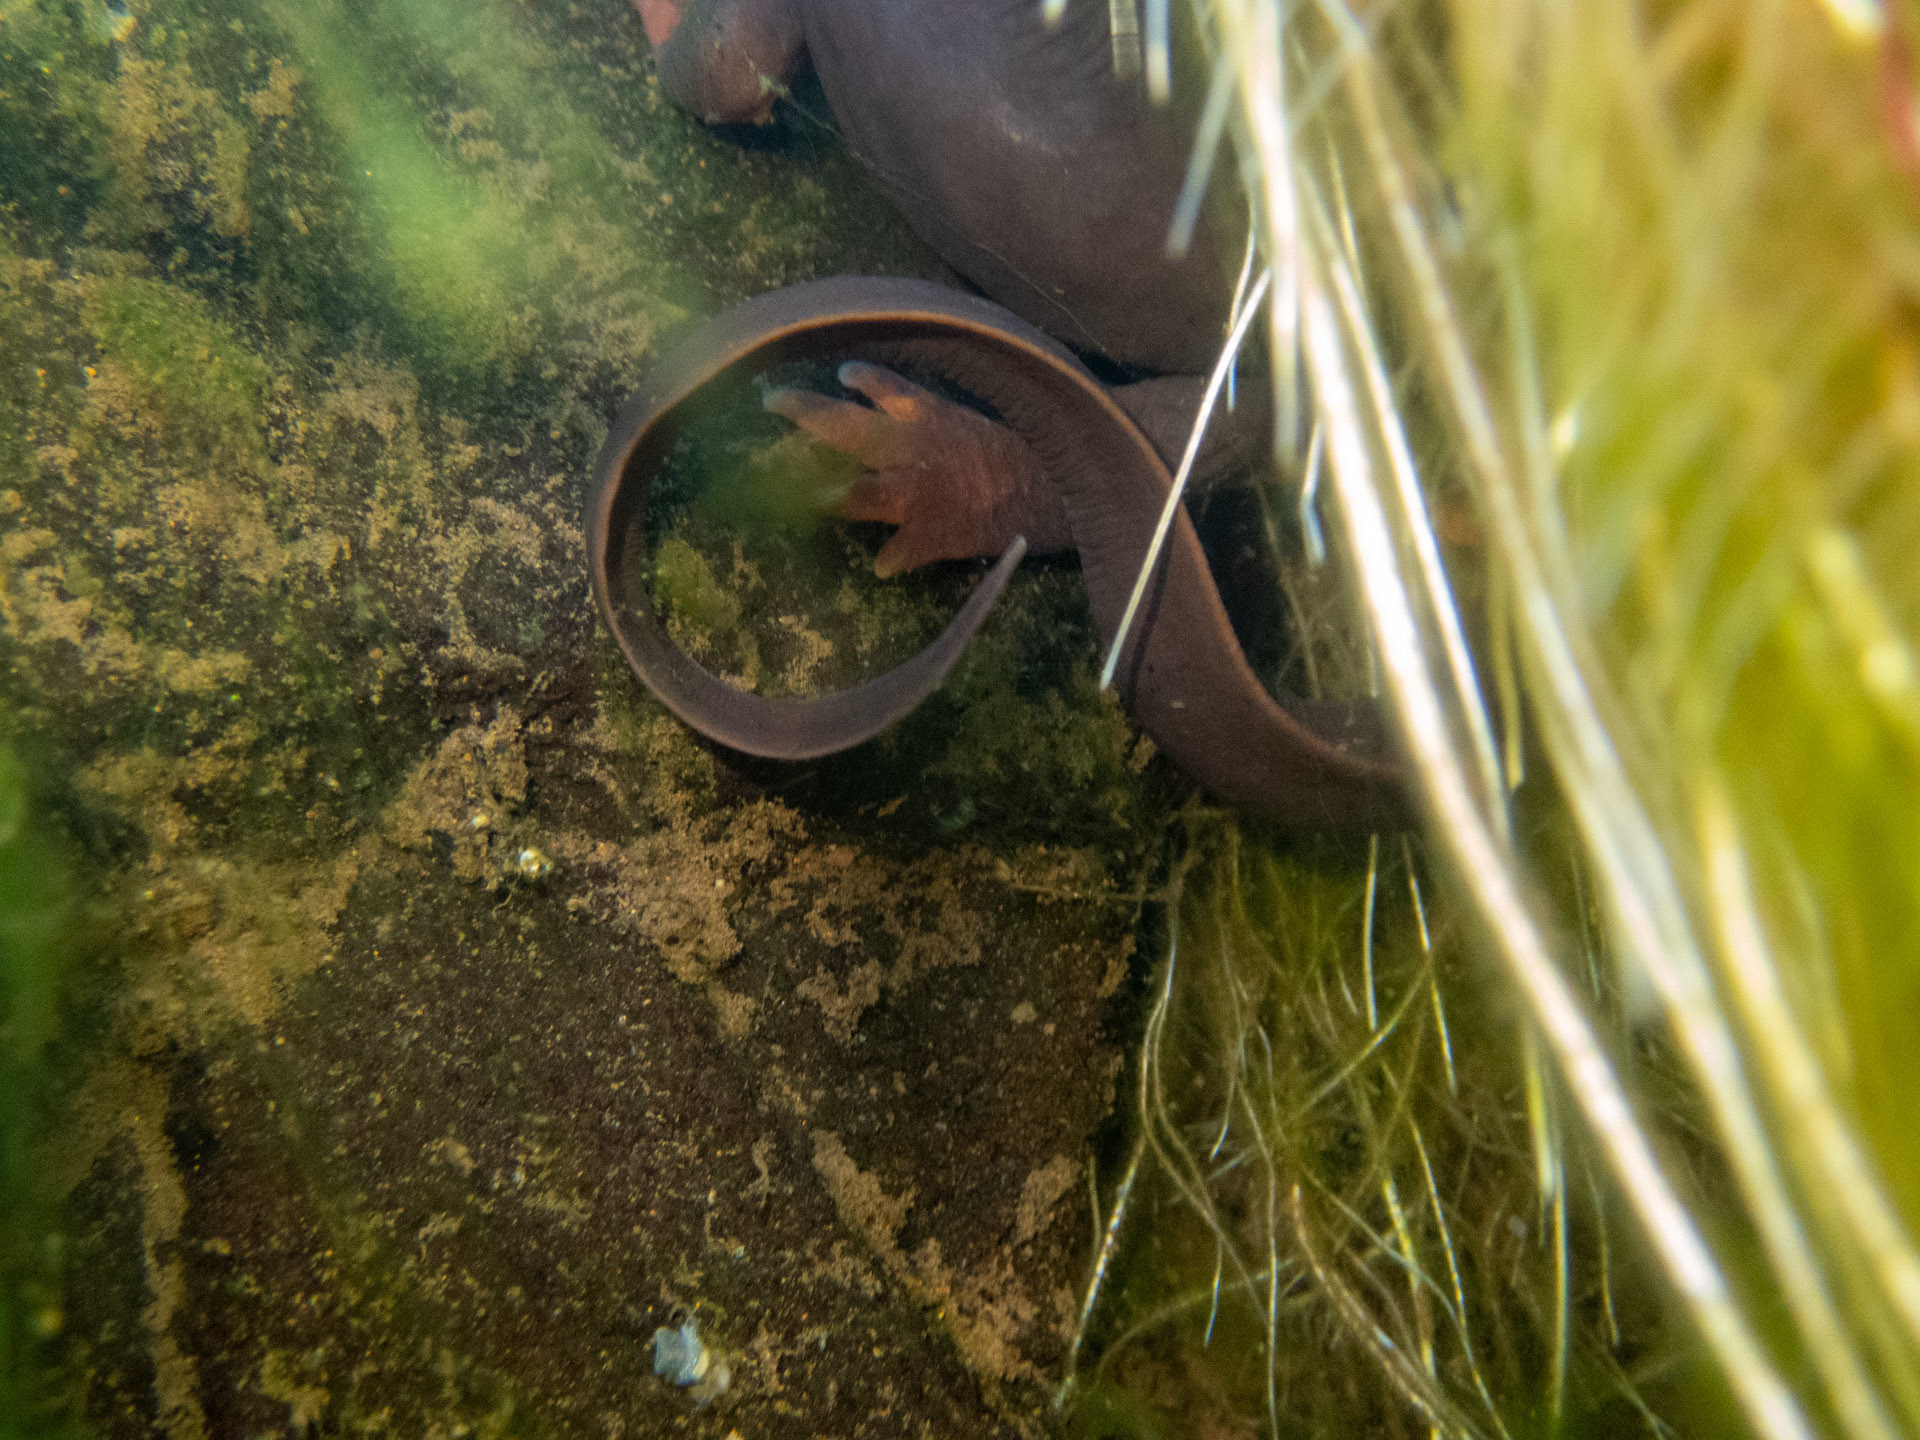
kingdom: Animalia
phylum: Chordata
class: Amphibia
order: Caudata
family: Salamandridae
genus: Taricha
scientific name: Taricha sierrae
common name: Sierra newt
